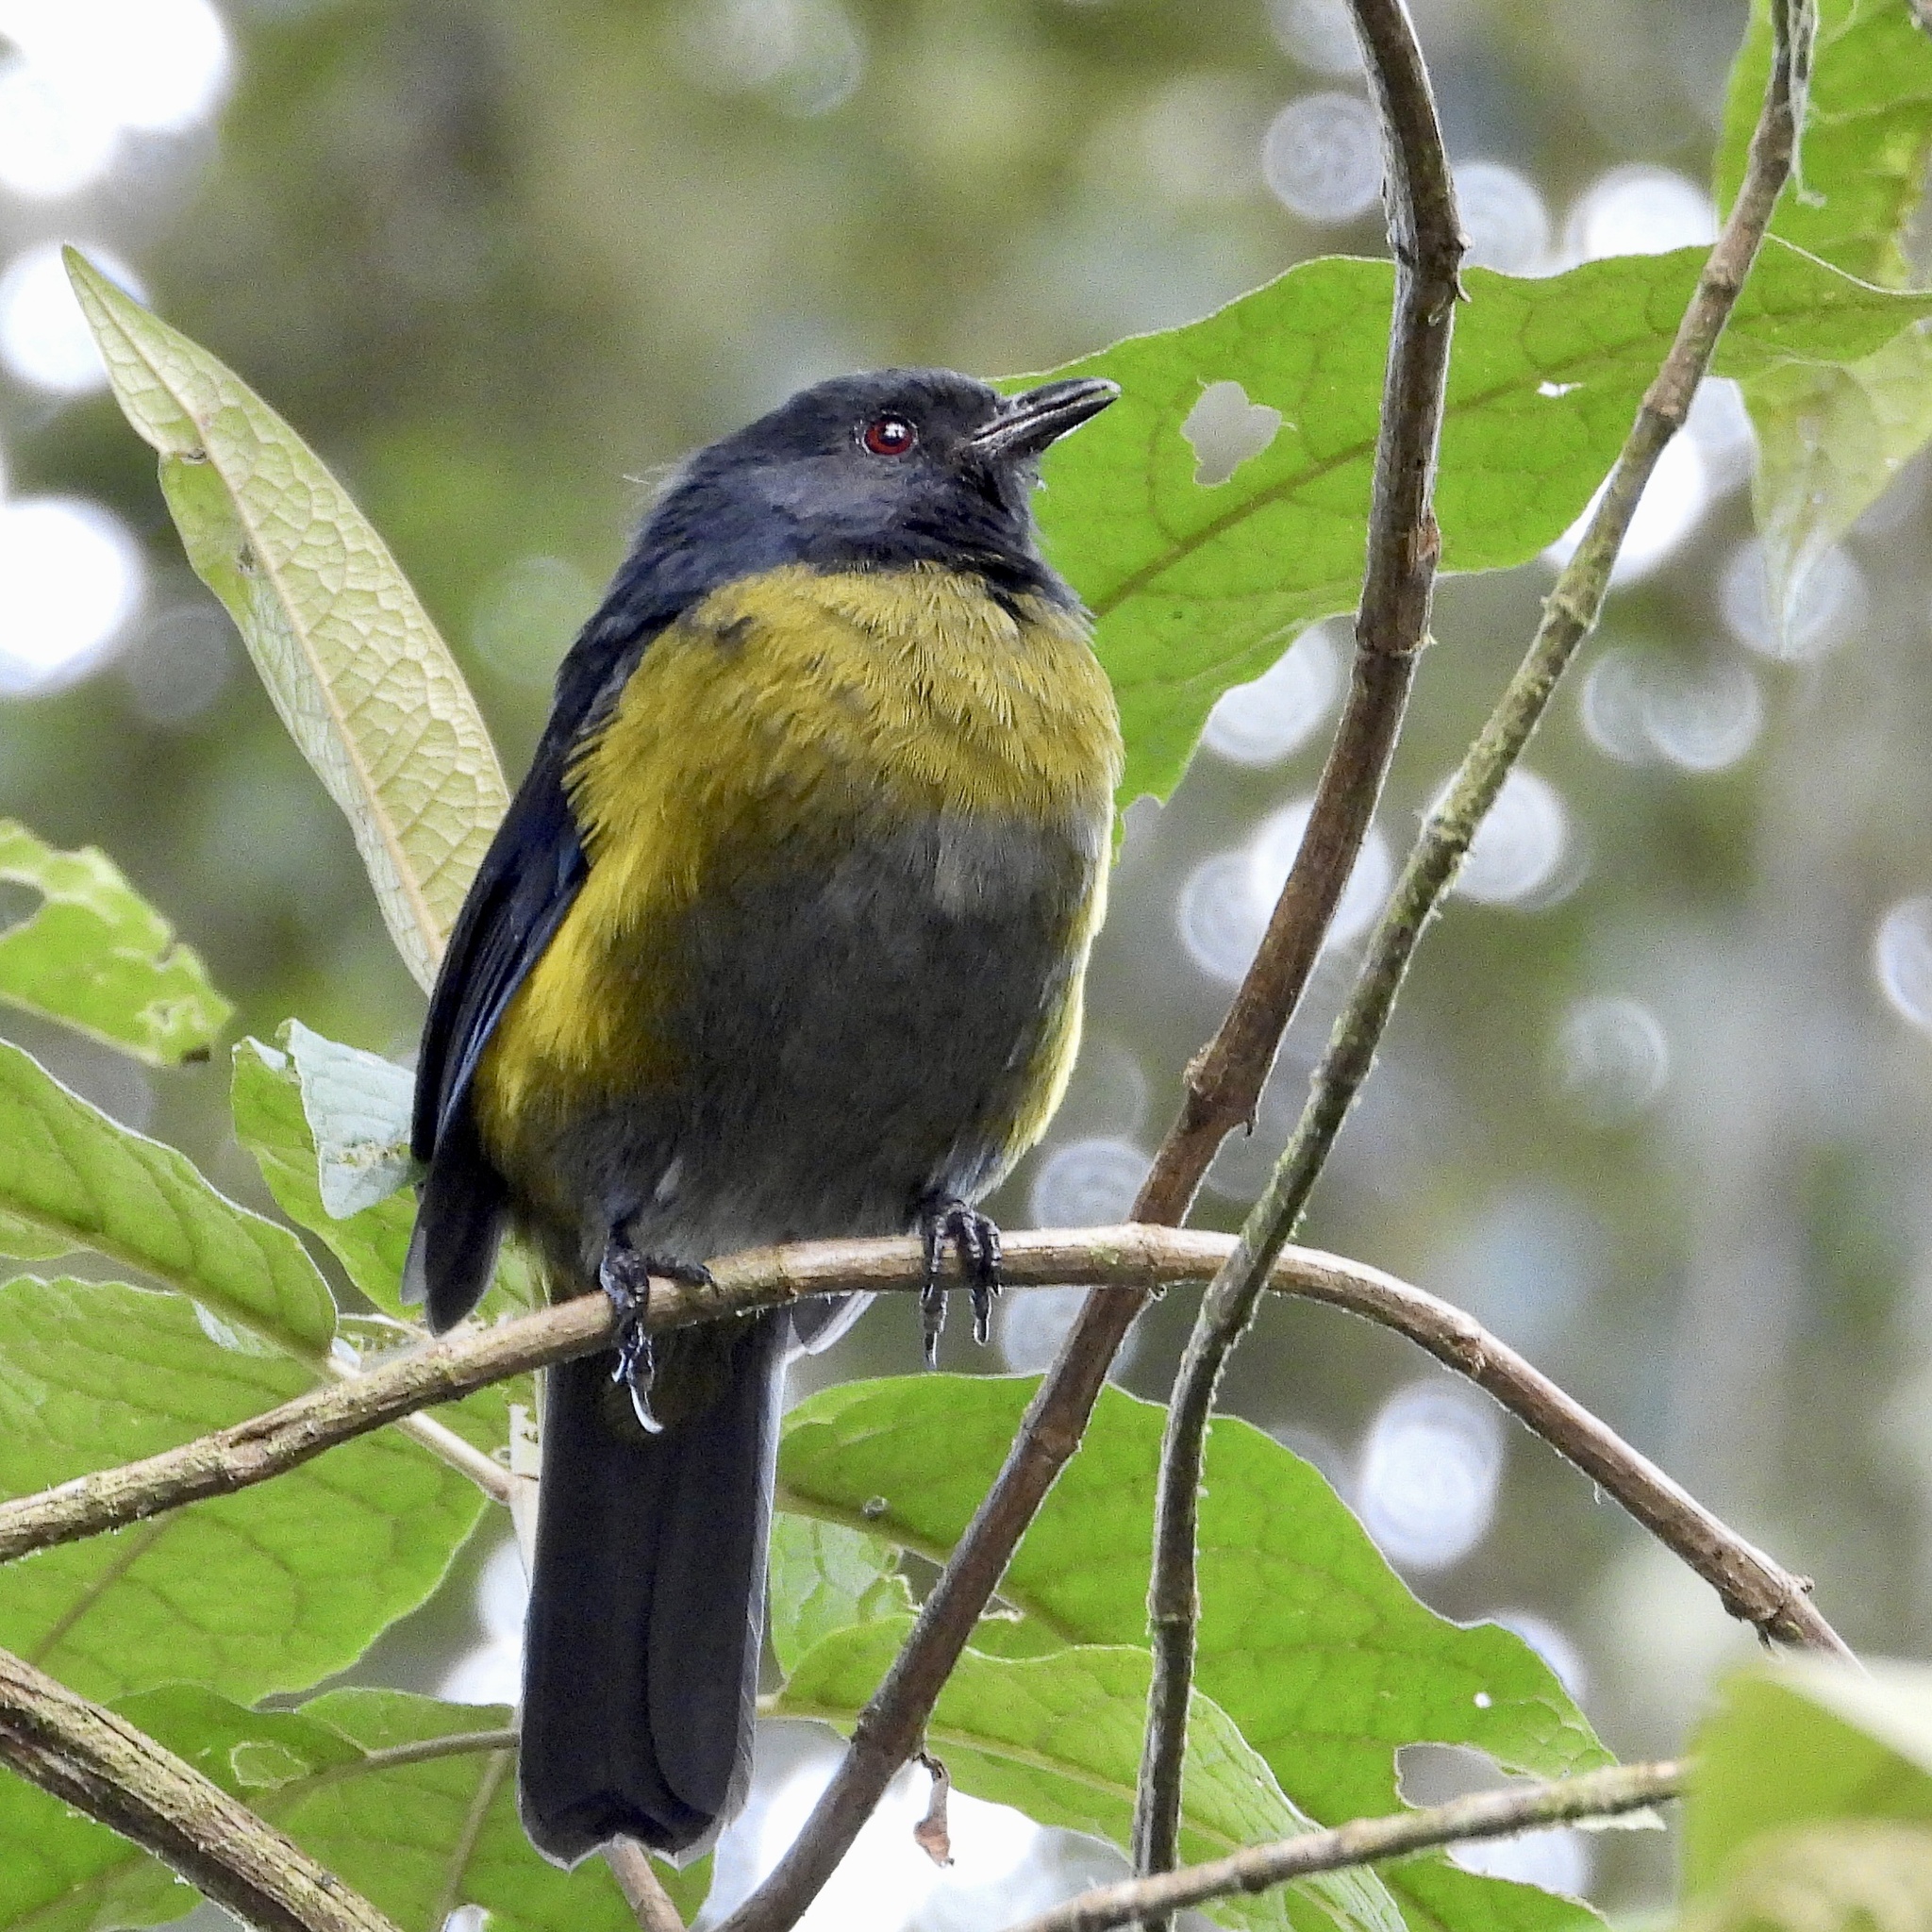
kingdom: Animalia
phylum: Chordata
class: Aves
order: Passeriformes
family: Ptilogonatidae
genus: Phainoptila
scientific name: Phainoptila melanoxantha
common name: Black-and-yellow phainoptila
